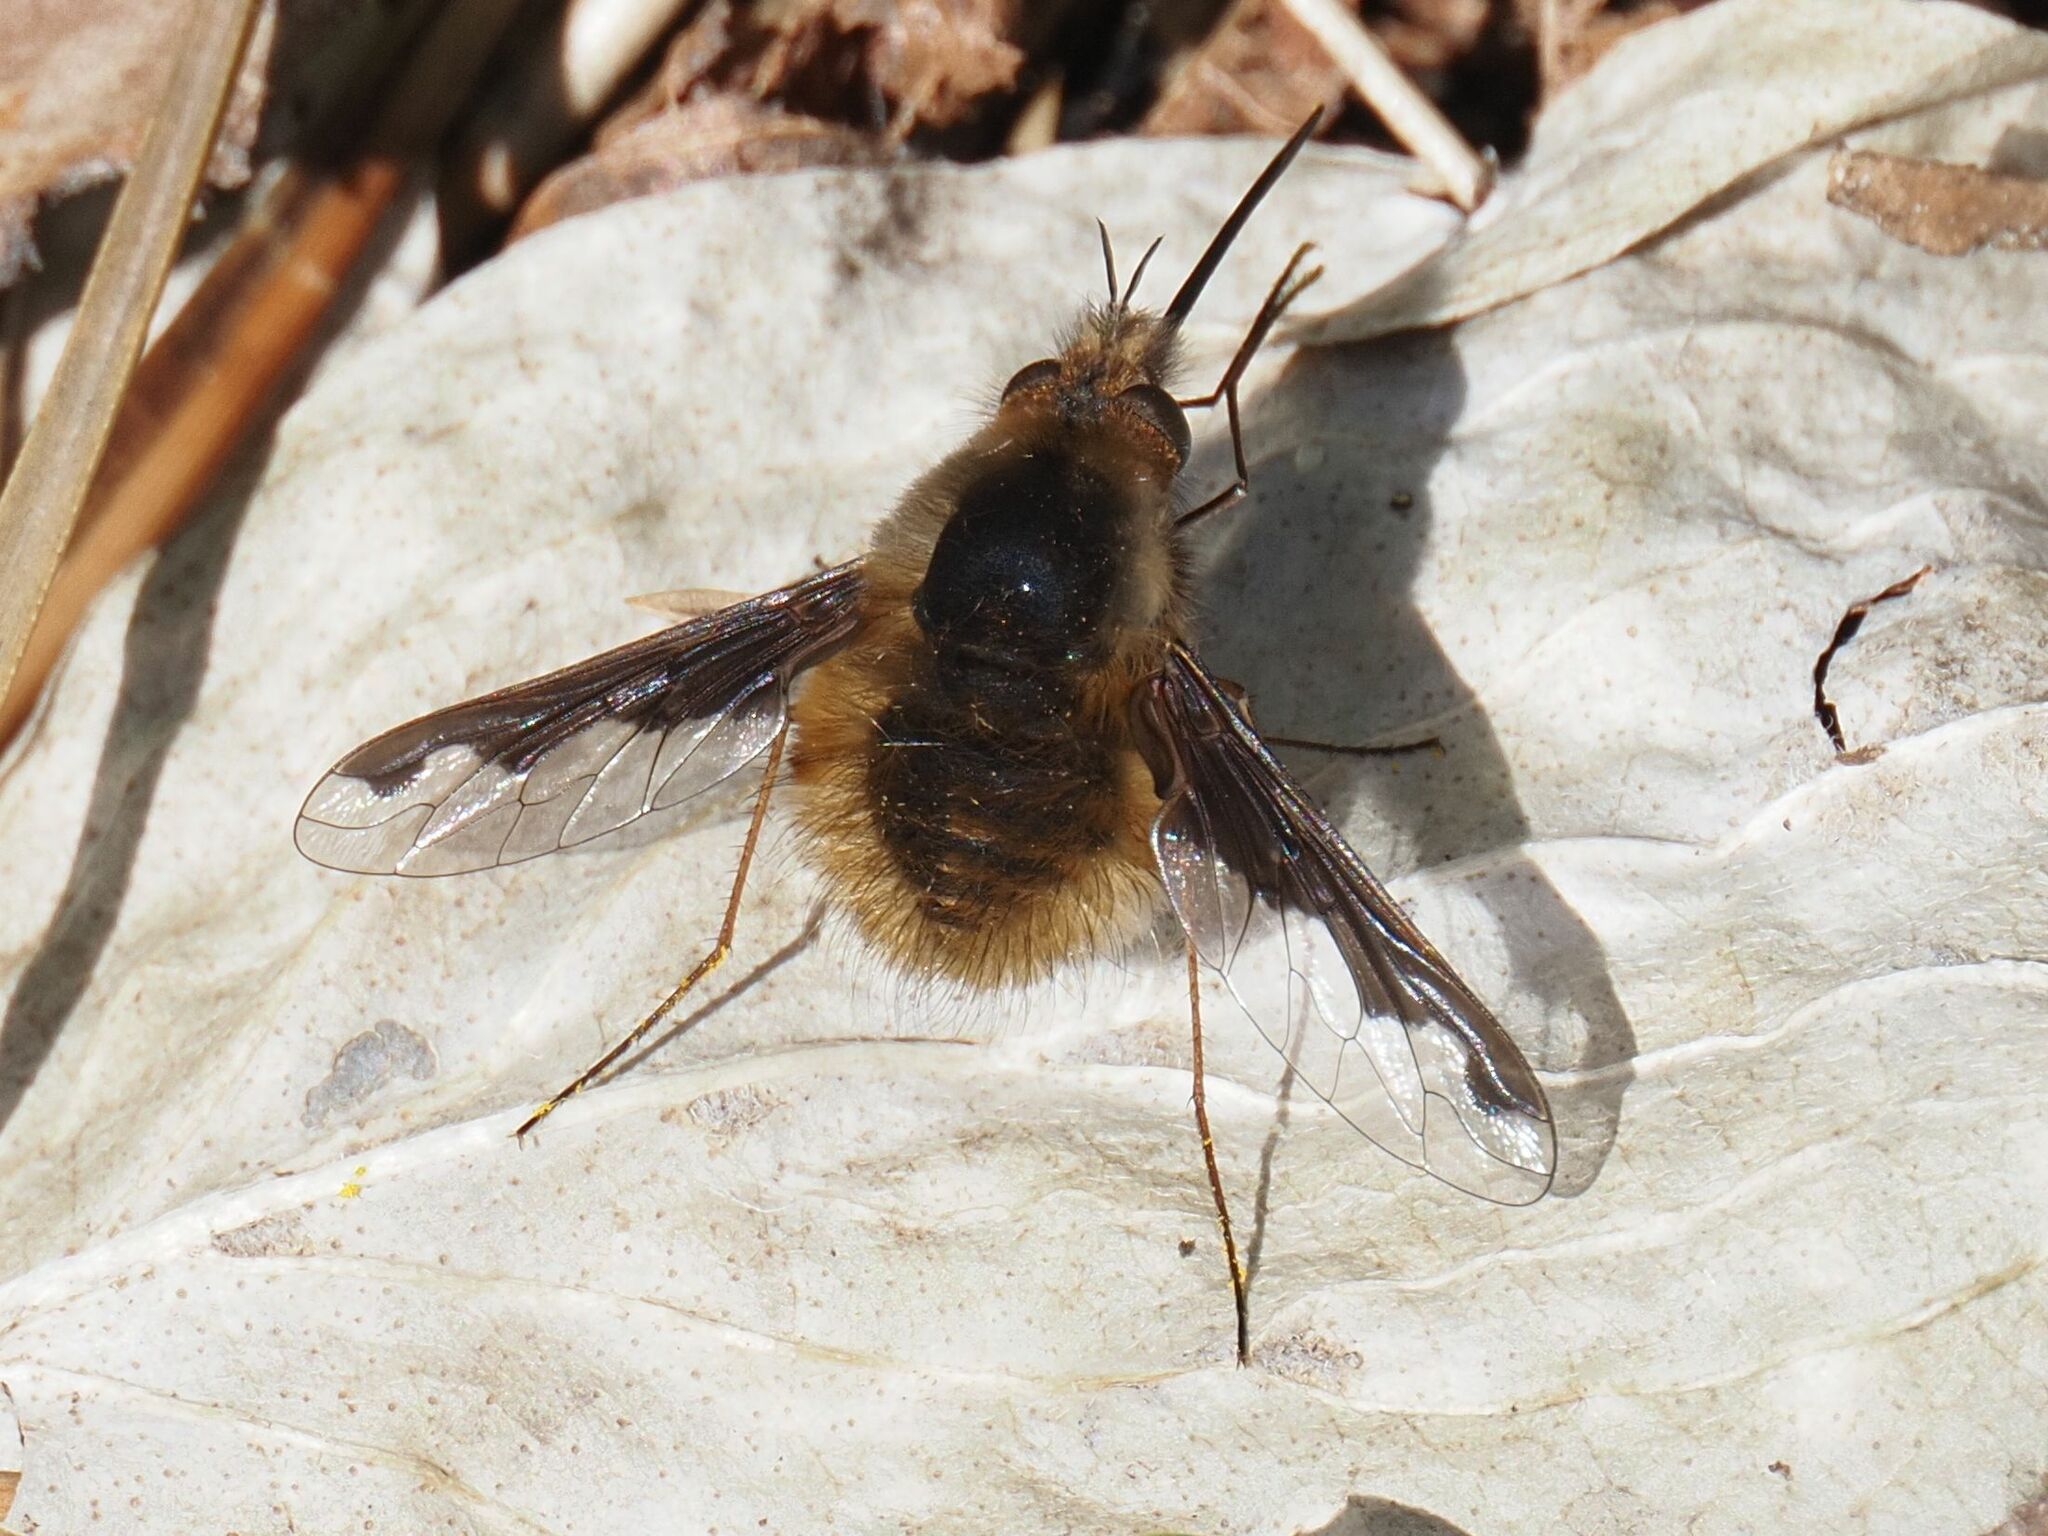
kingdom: Animalia
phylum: Arthropoda
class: Insecta
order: Diptera
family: Bombyliidae
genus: Bombylius
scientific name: Bombylius major
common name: Bee fly
